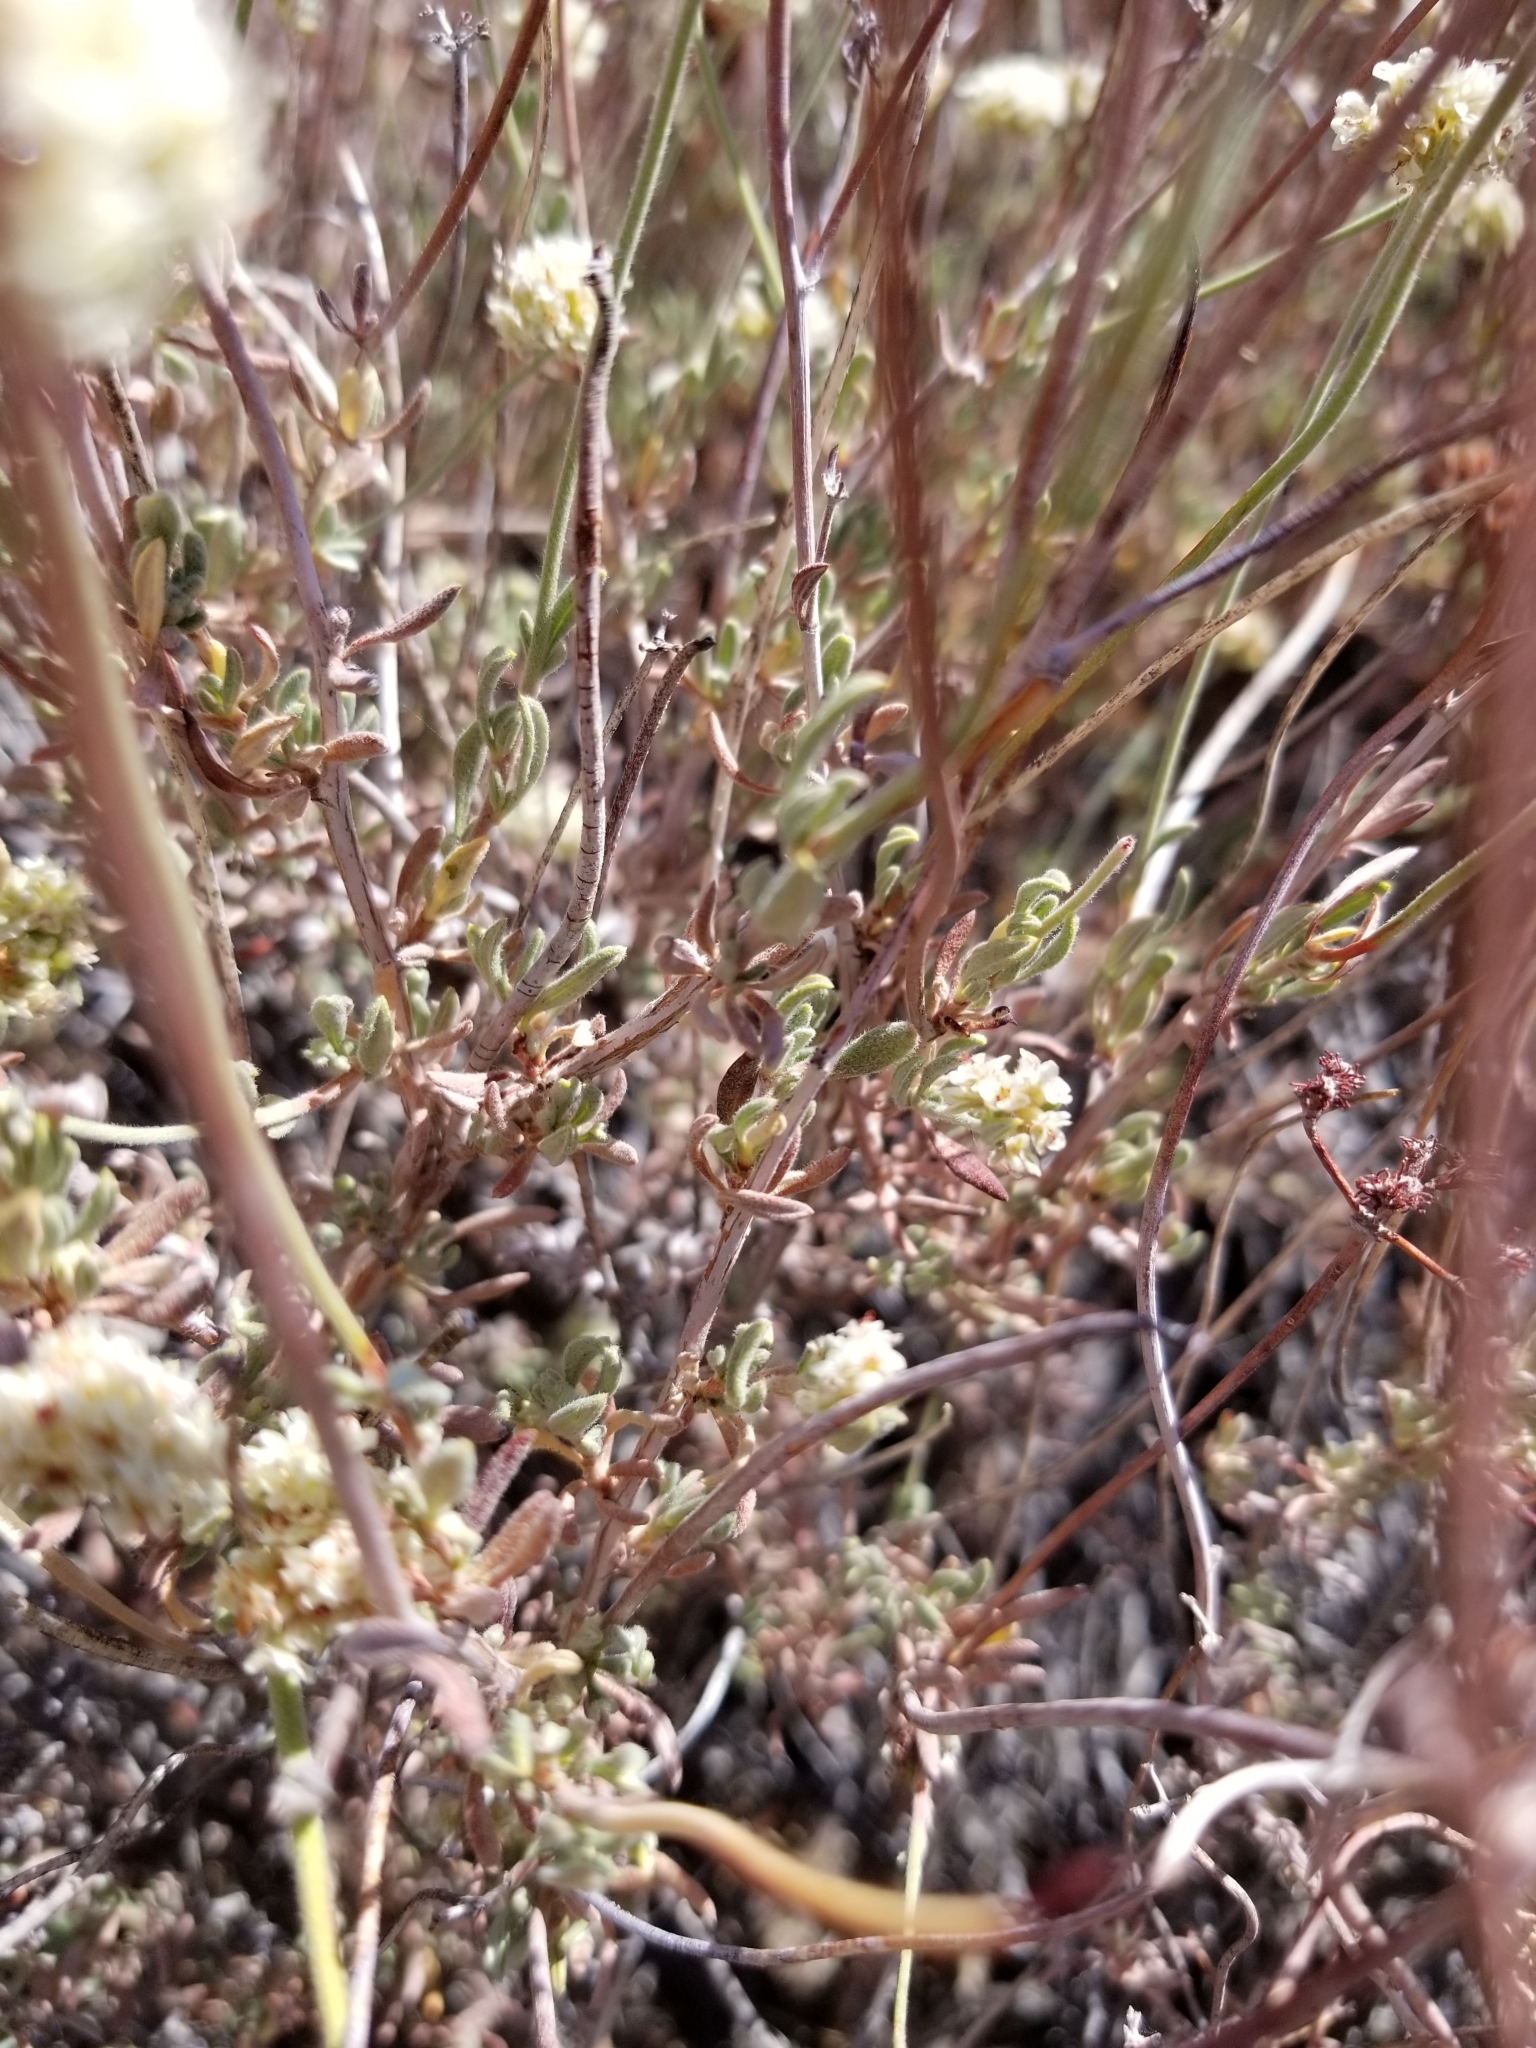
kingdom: Plantae
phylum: Tracheophyta
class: Magnoliopsida
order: Caryophyllales
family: Polygonaceae
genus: Eriogonum
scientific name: Eriogonum fasciculatum
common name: California wild buckwheat
